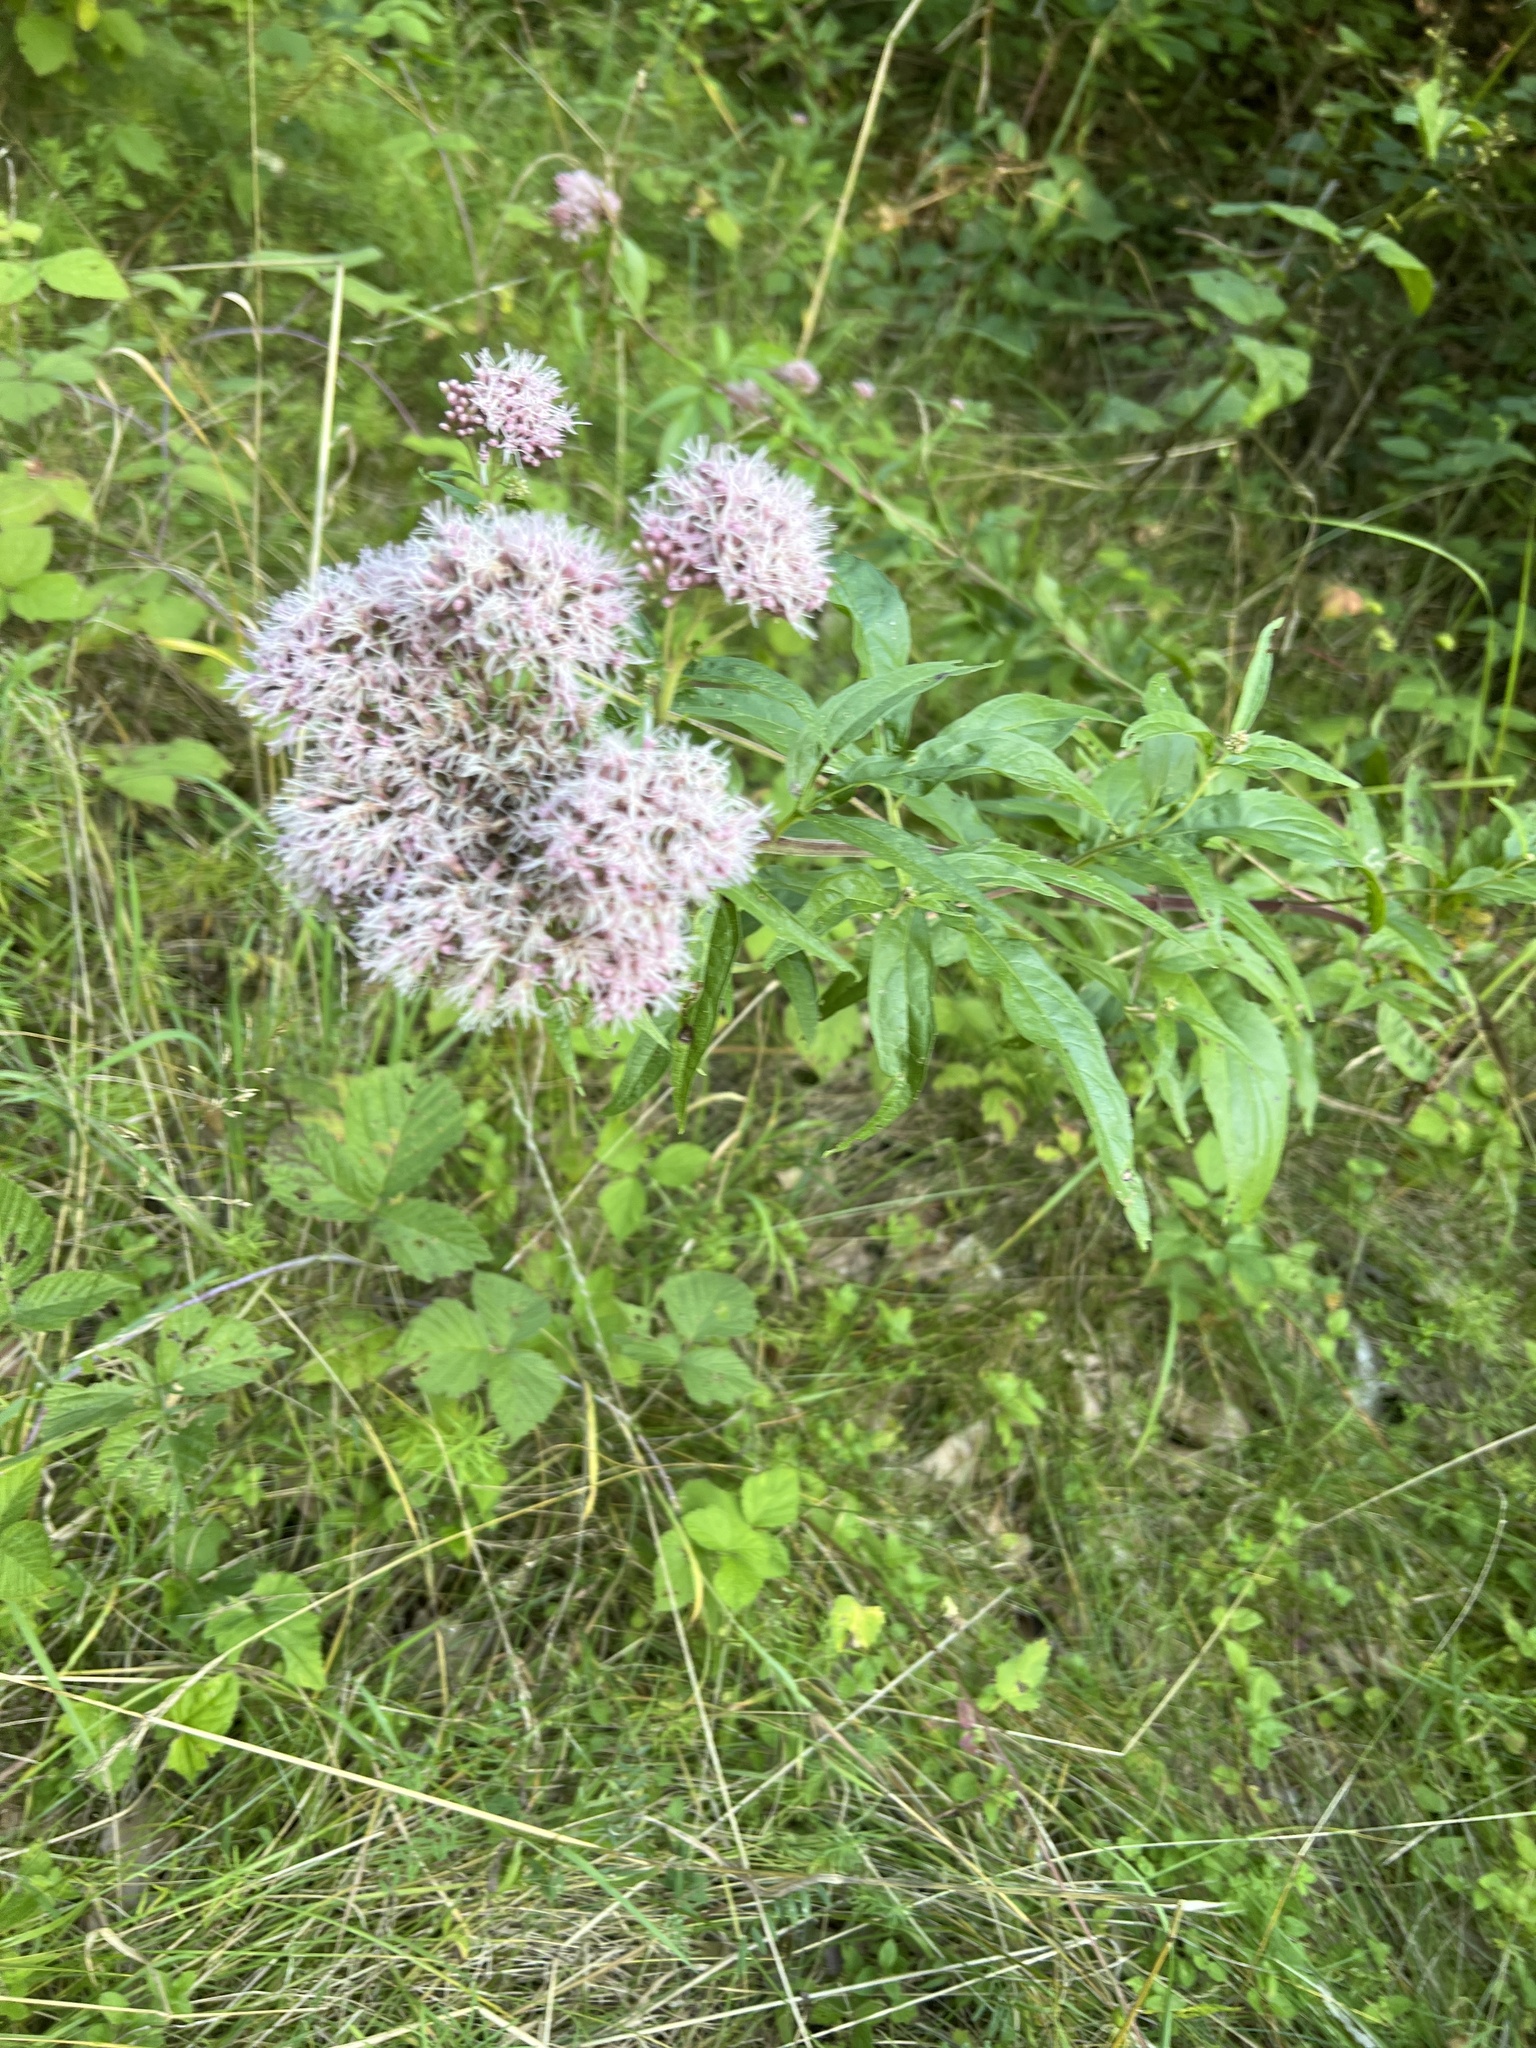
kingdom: Plantae
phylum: Tracheophyta
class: Magnoliopsida
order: Asterales
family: Asteraceae
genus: Eupatorium
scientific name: Eupatorium cannabinum
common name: Hemp-agrimony
